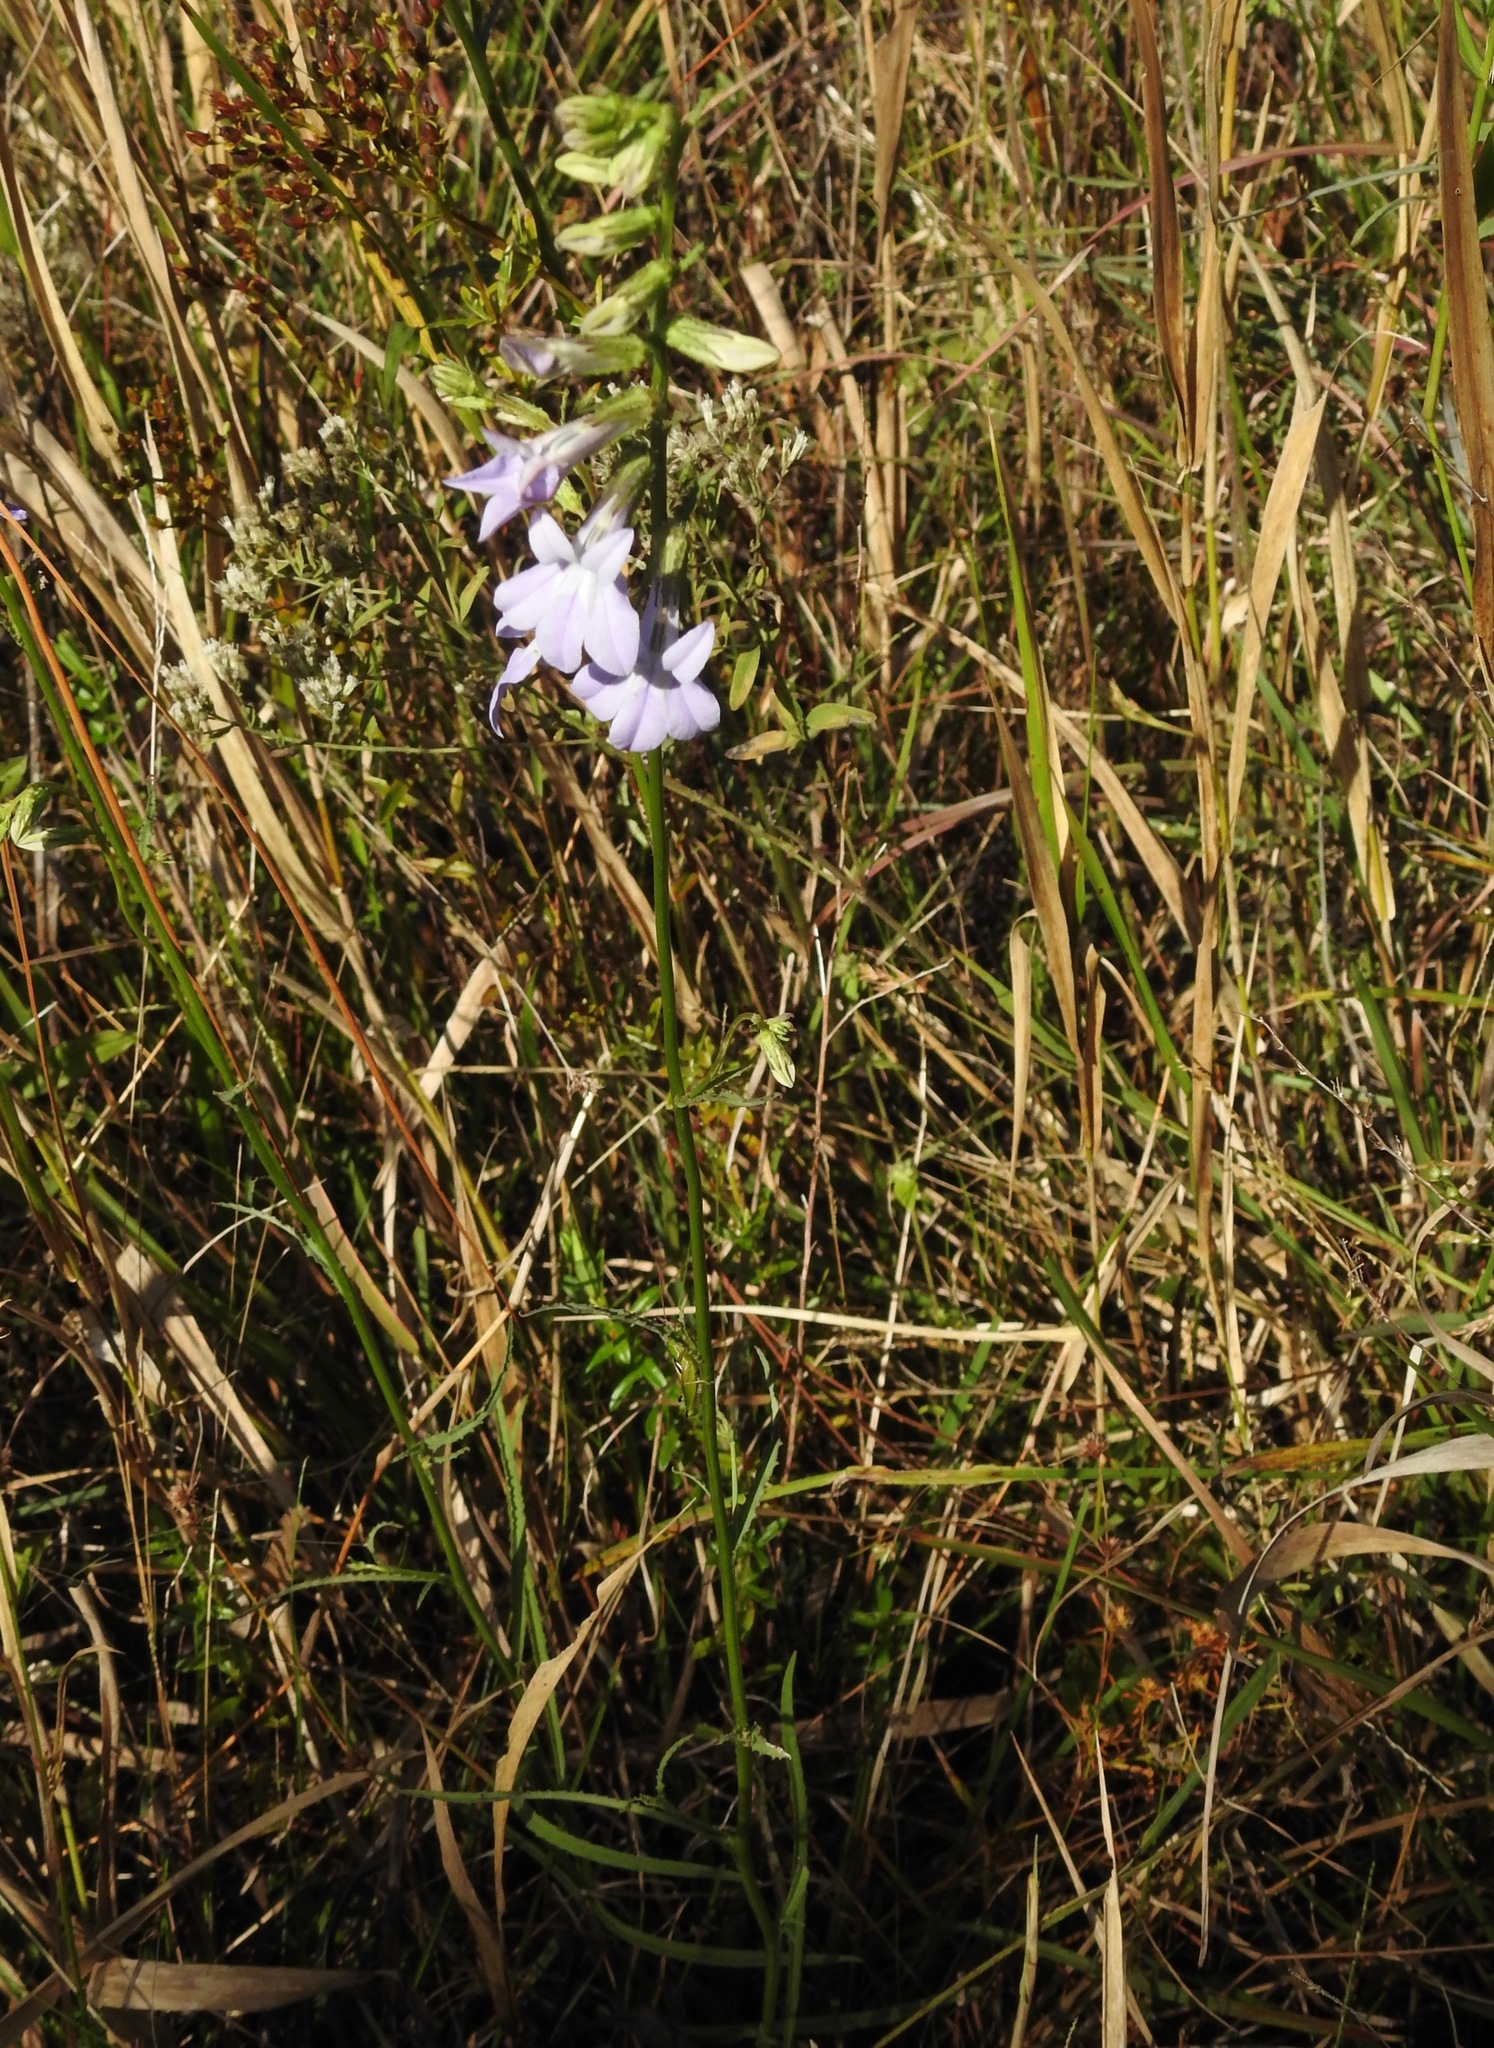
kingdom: Plantae
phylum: Tracheophyta
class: Magnoliopsida
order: Asterales
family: Campanulaceae
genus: Lobelia
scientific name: Lobelia glandulosa
